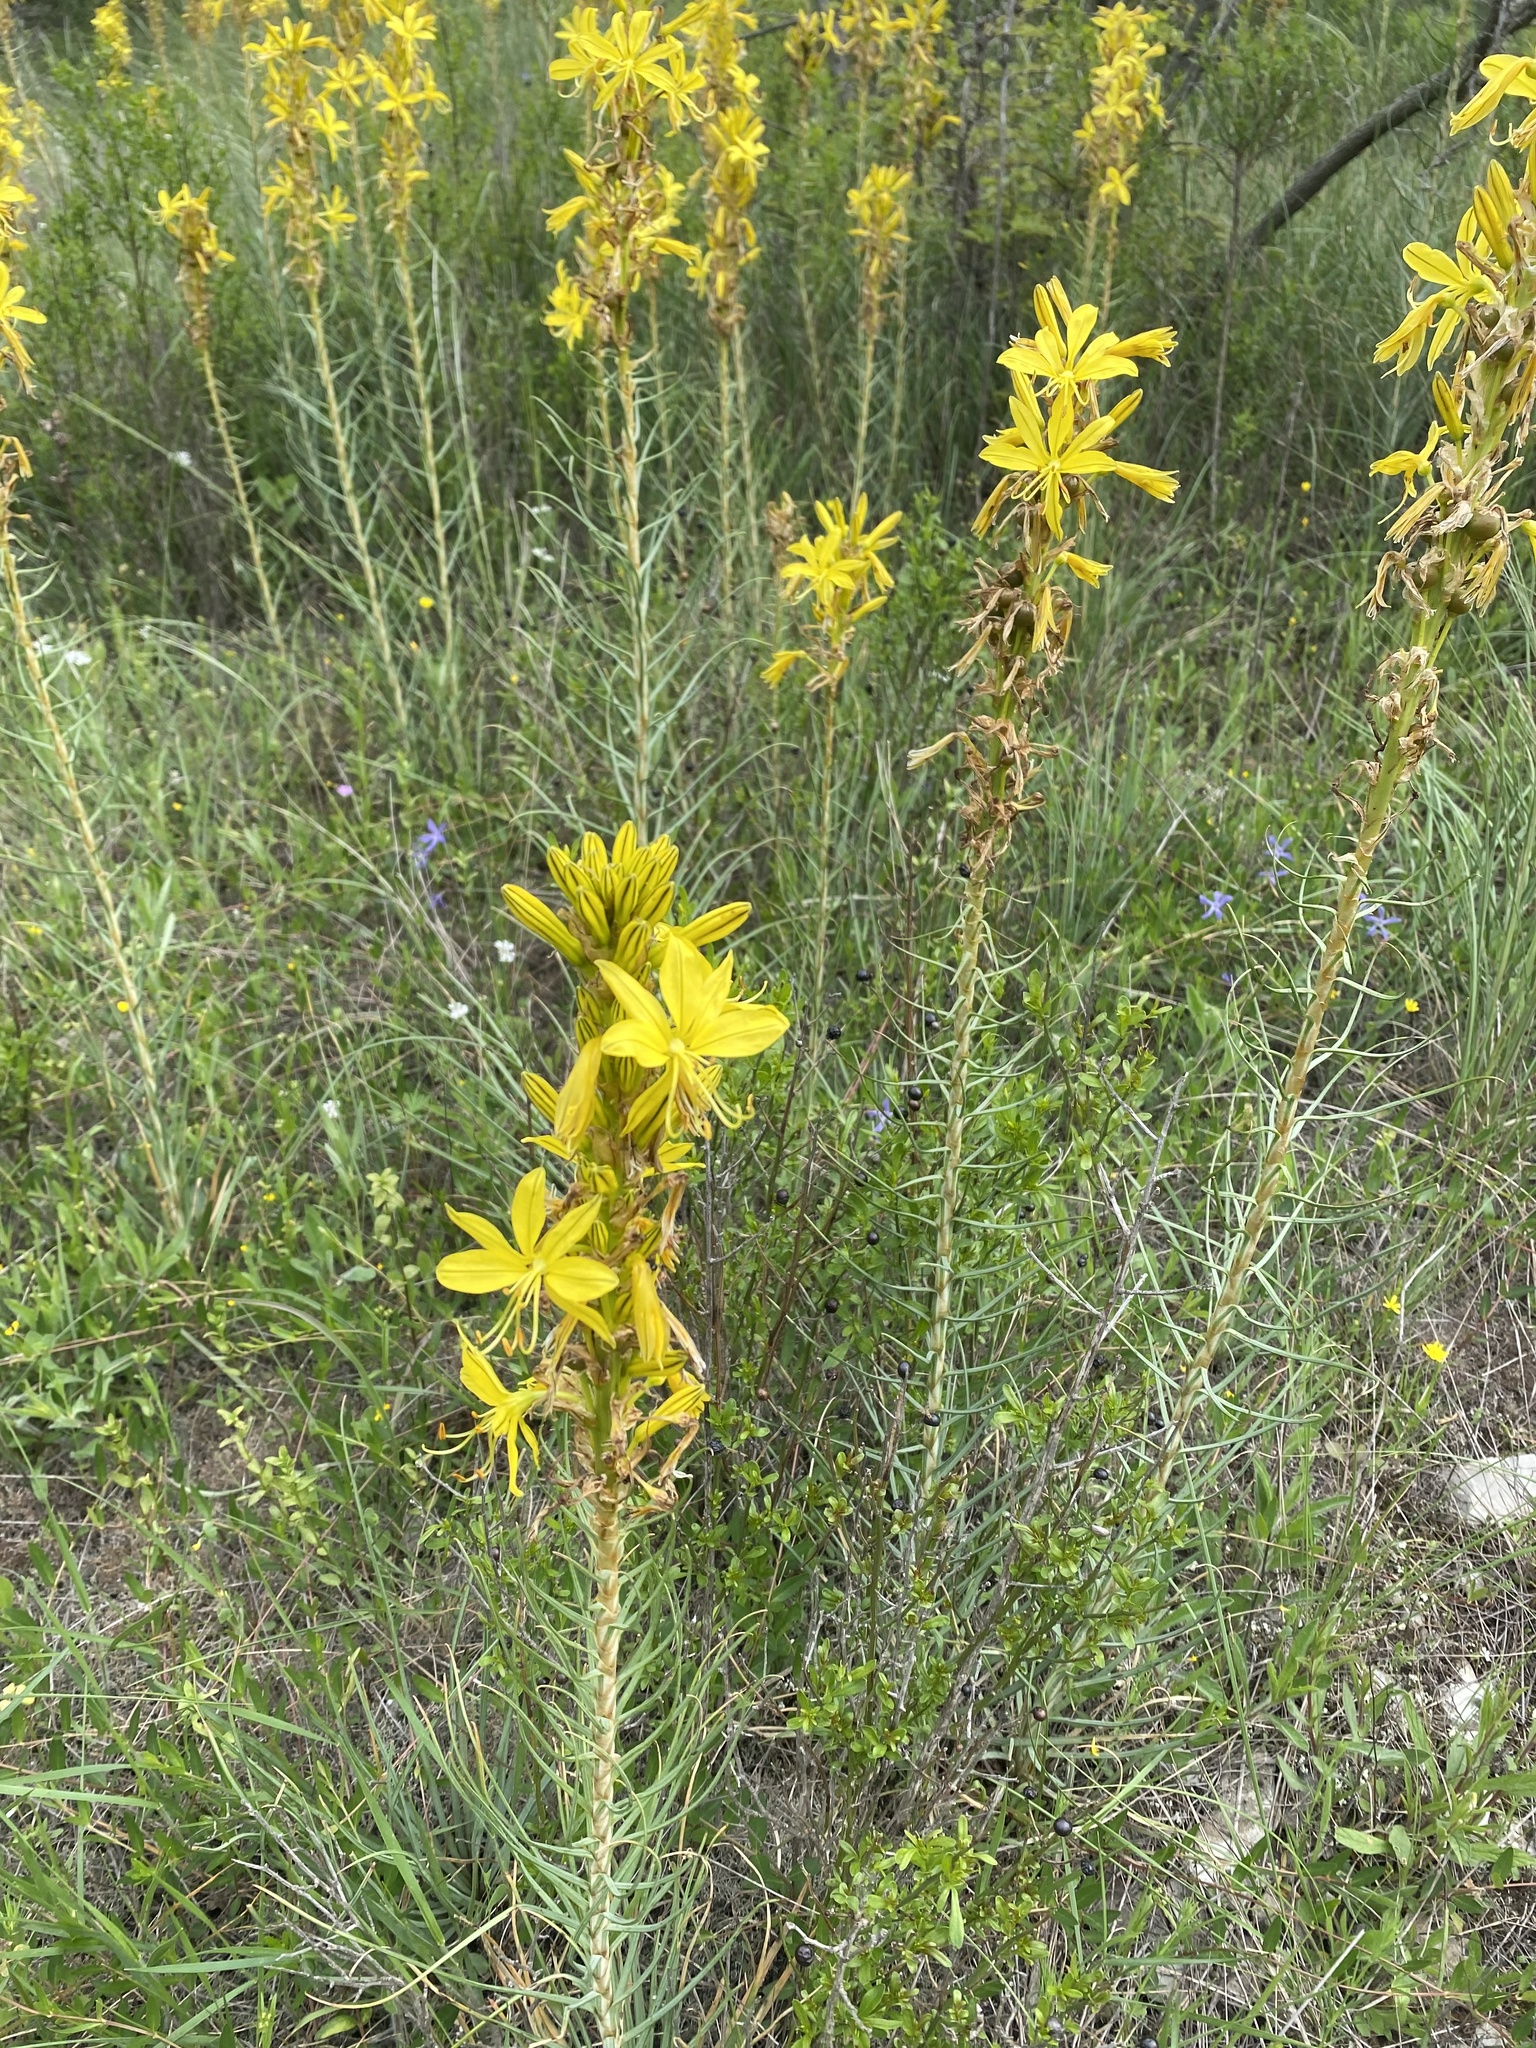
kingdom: Plantae
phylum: Tracheophyta
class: Liliopsida
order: Asparagales
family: Asphodelaceae
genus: Asphodeline
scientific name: Asphodeline lutea
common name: Yellow asphodel
